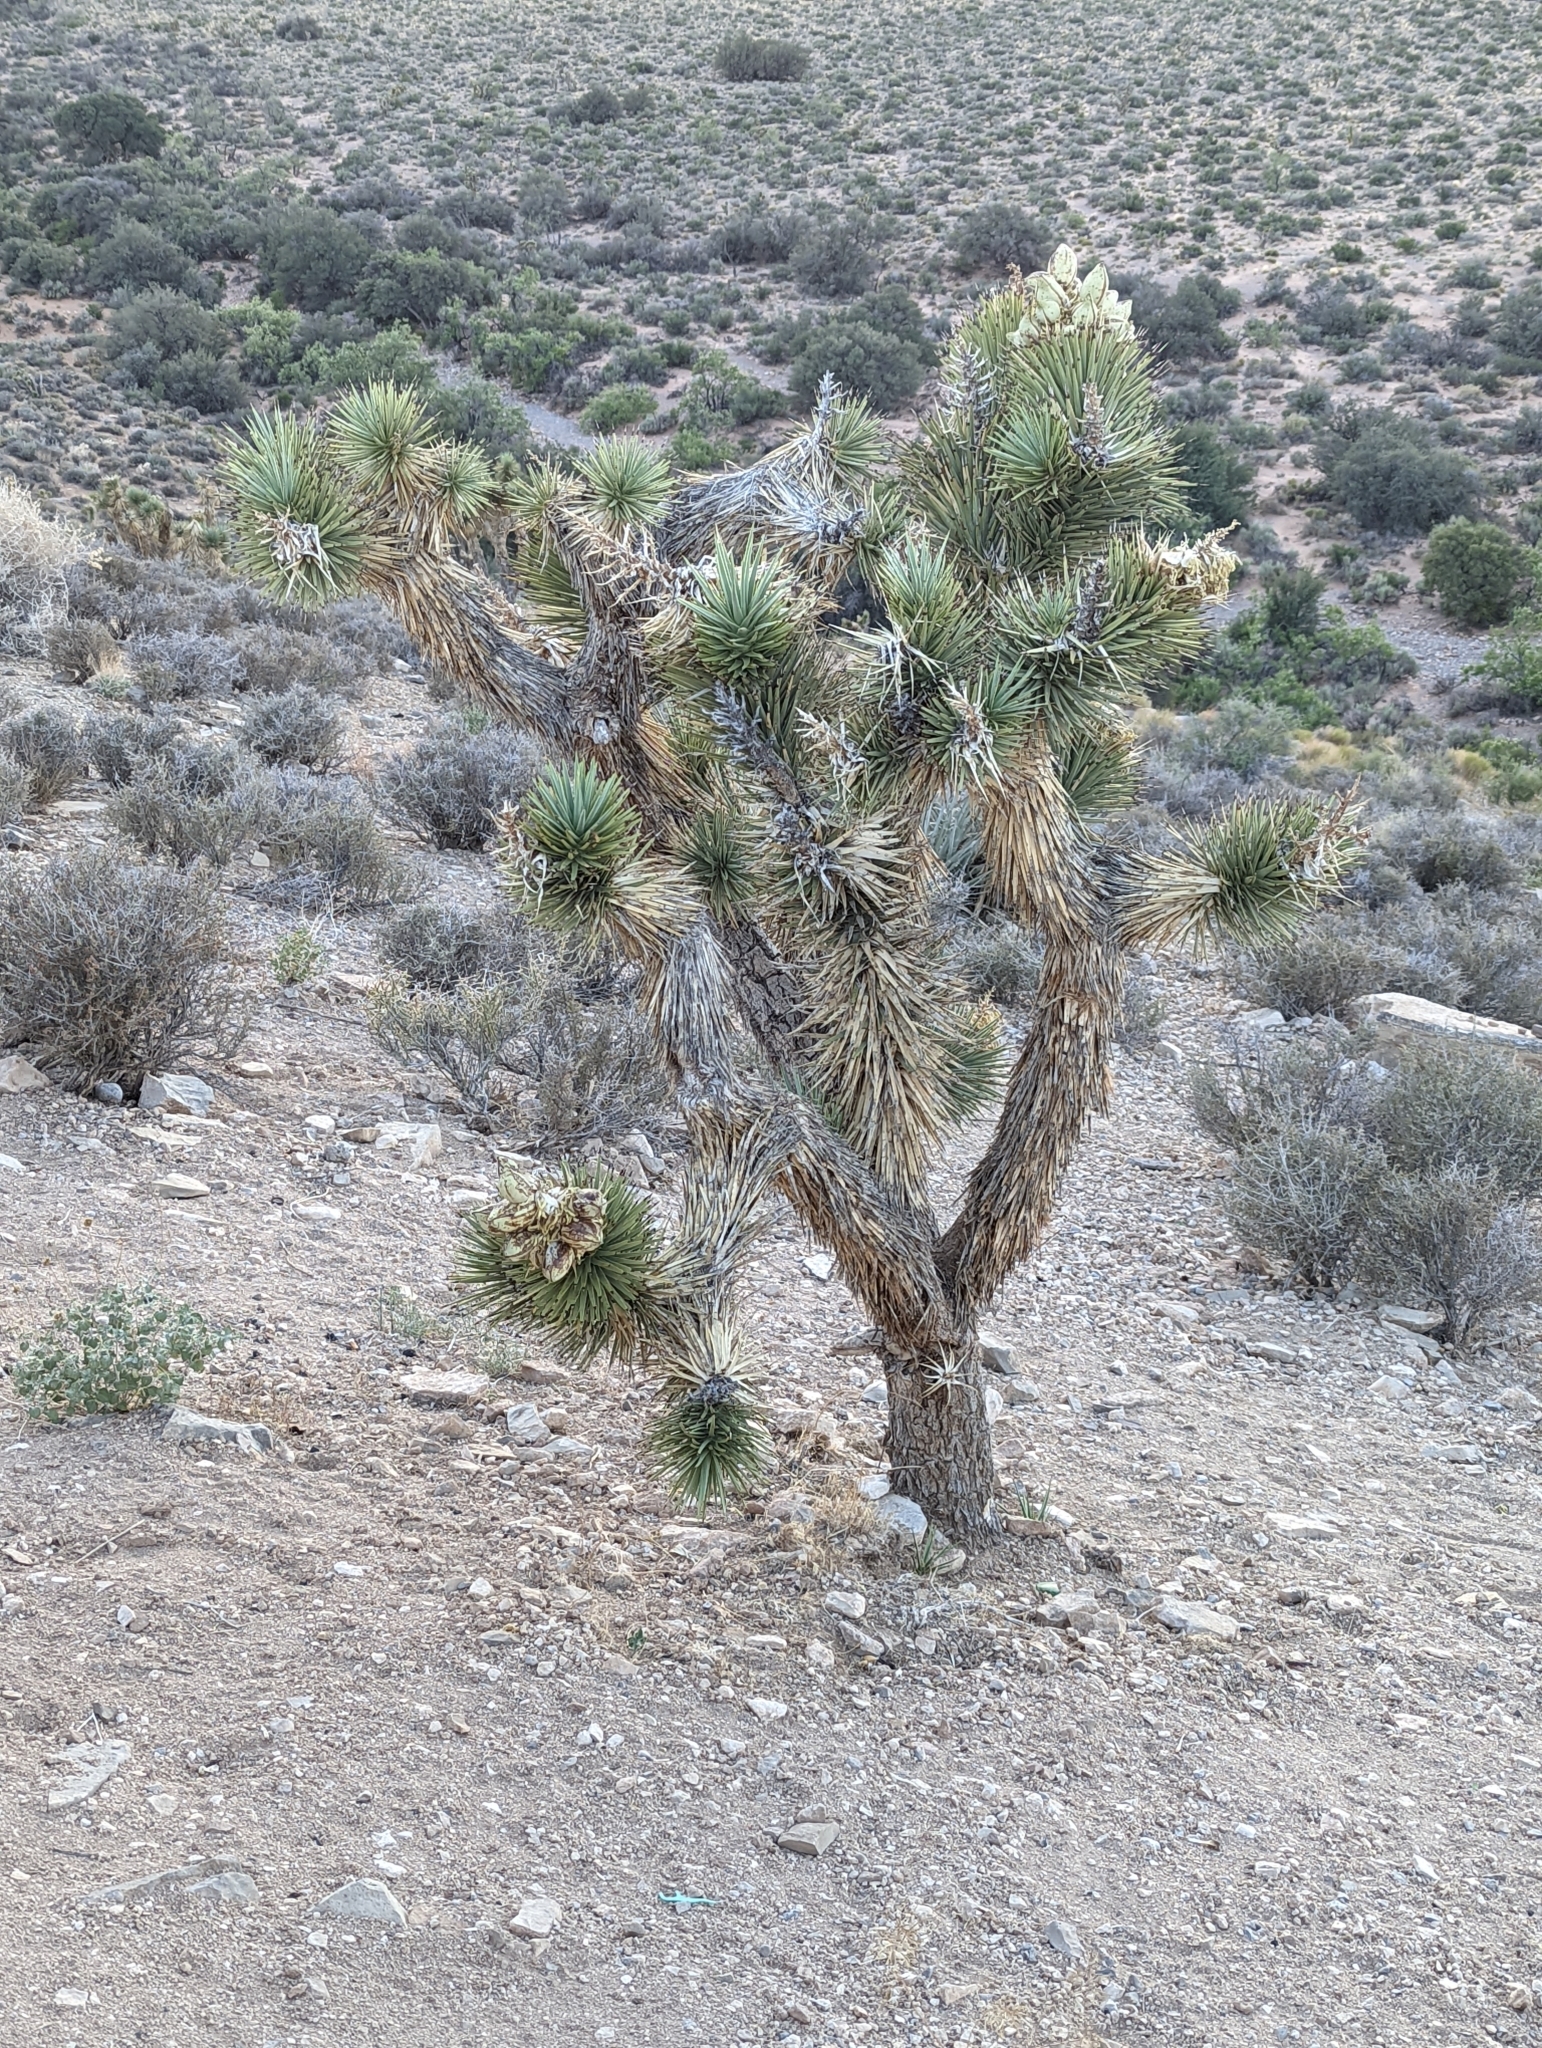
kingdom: Plantae
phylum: Tracheophyta
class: Liliopsida
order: Asparagales
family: Asparagaceae
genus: Yucca
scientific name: Yucca brevifolia
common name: Joshua tree
